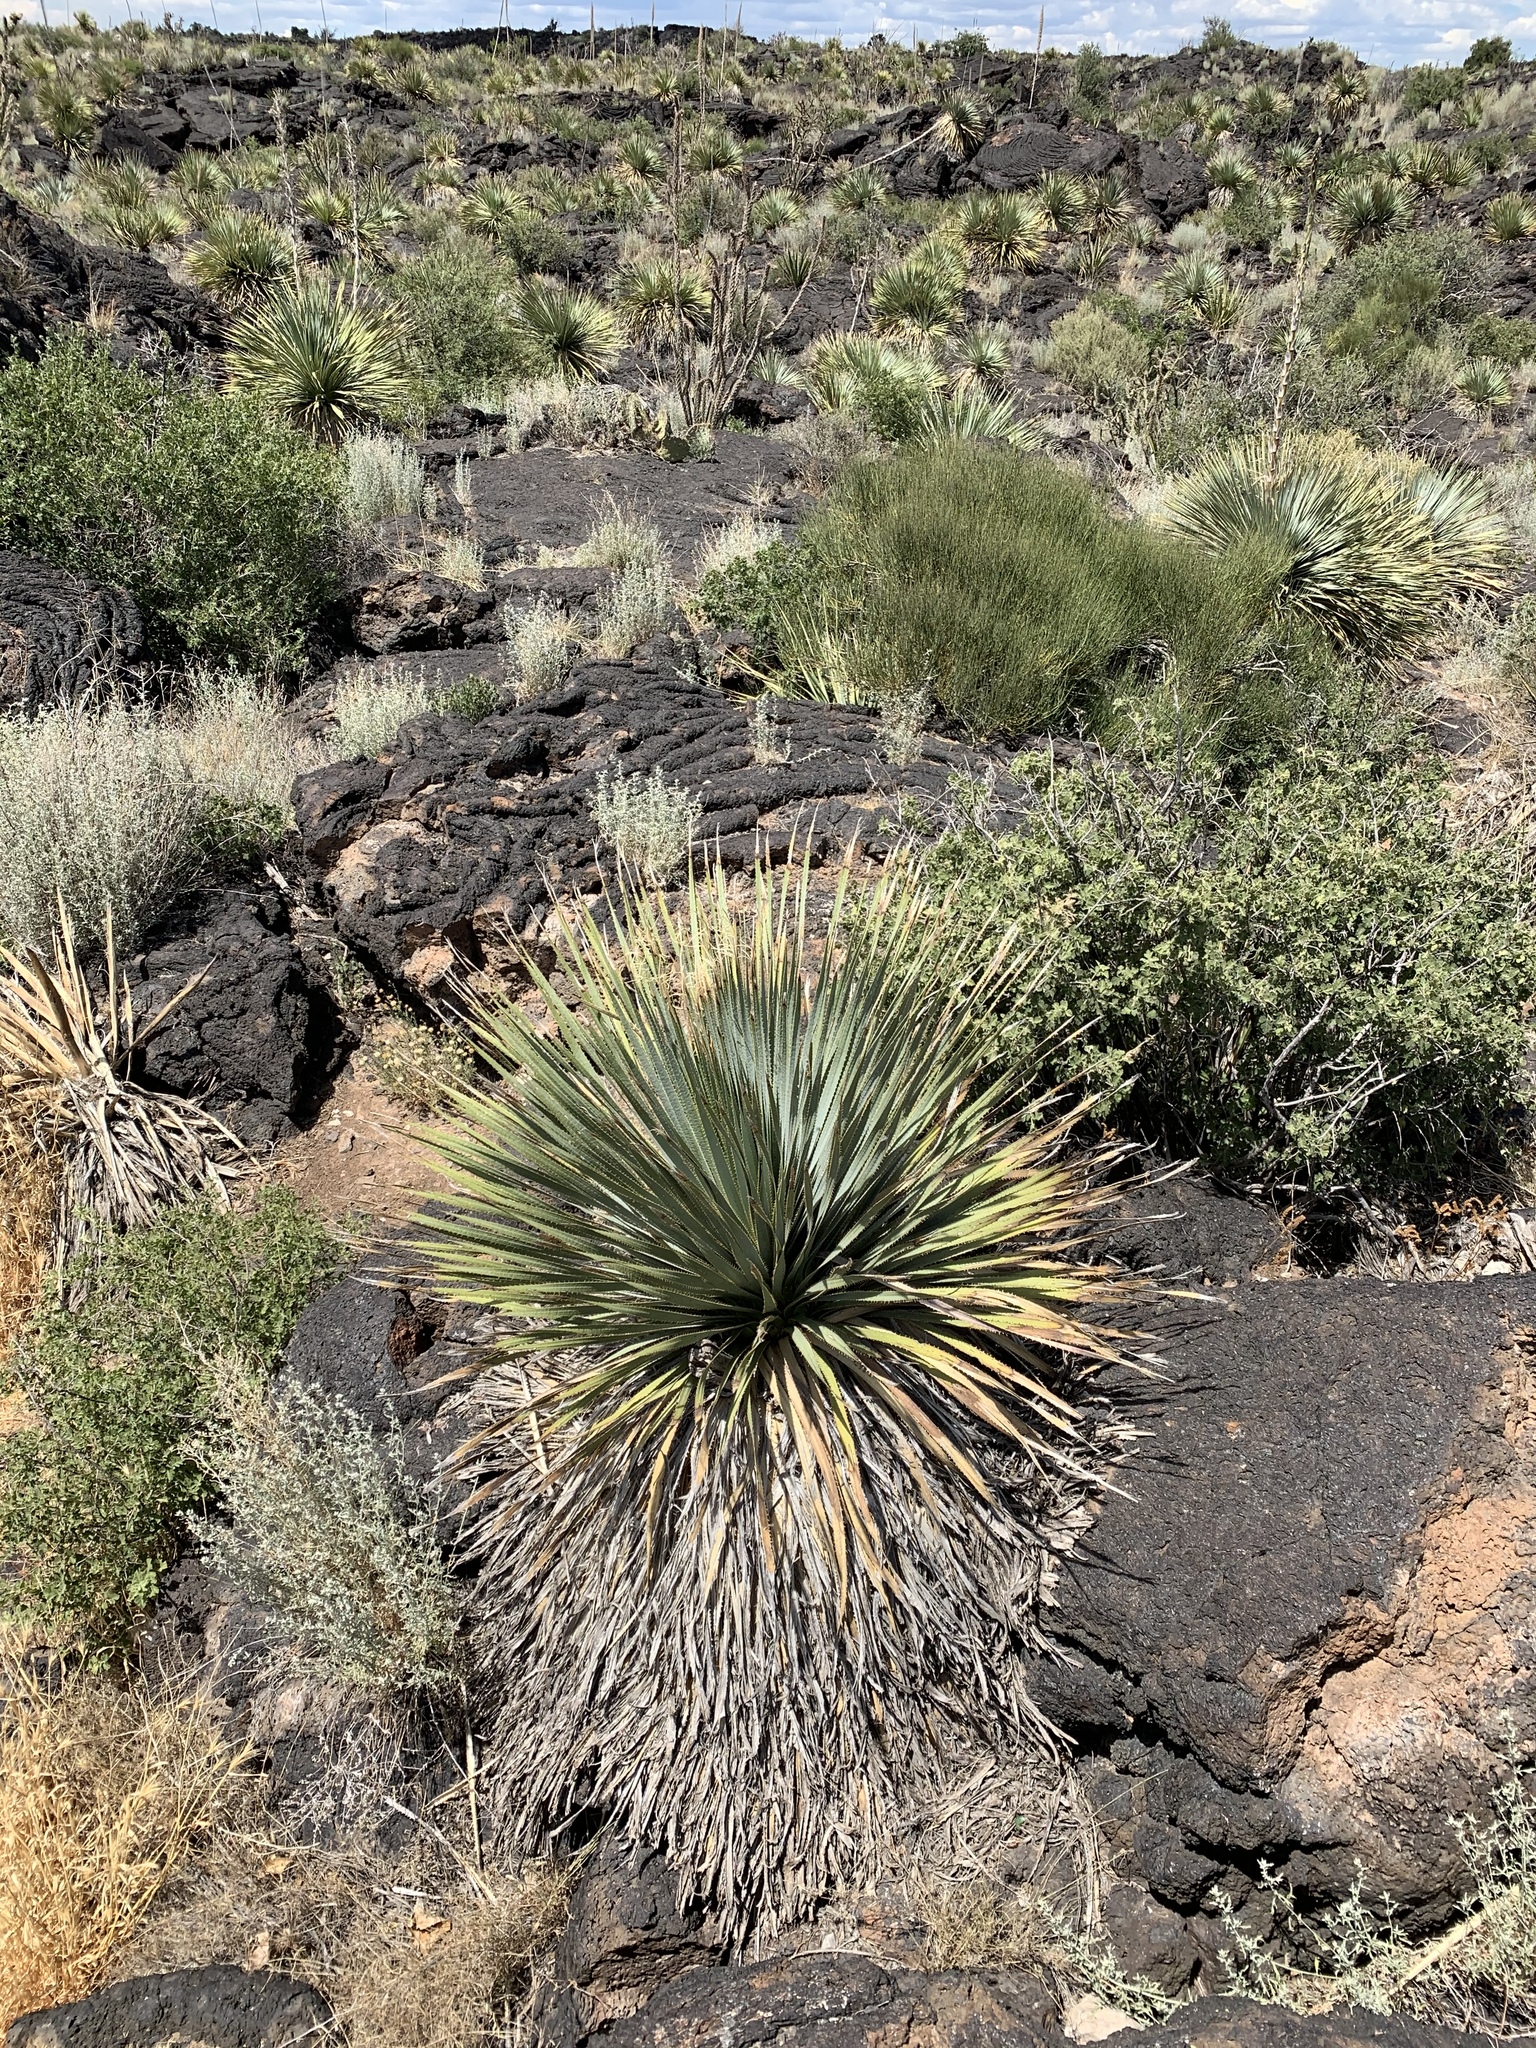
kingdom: Plantae
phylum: Tracheophyta
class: Liliopsida
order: Asparagales
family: Asparagaceae
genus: Dasylirion
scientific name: Dasylirion wheeleri
